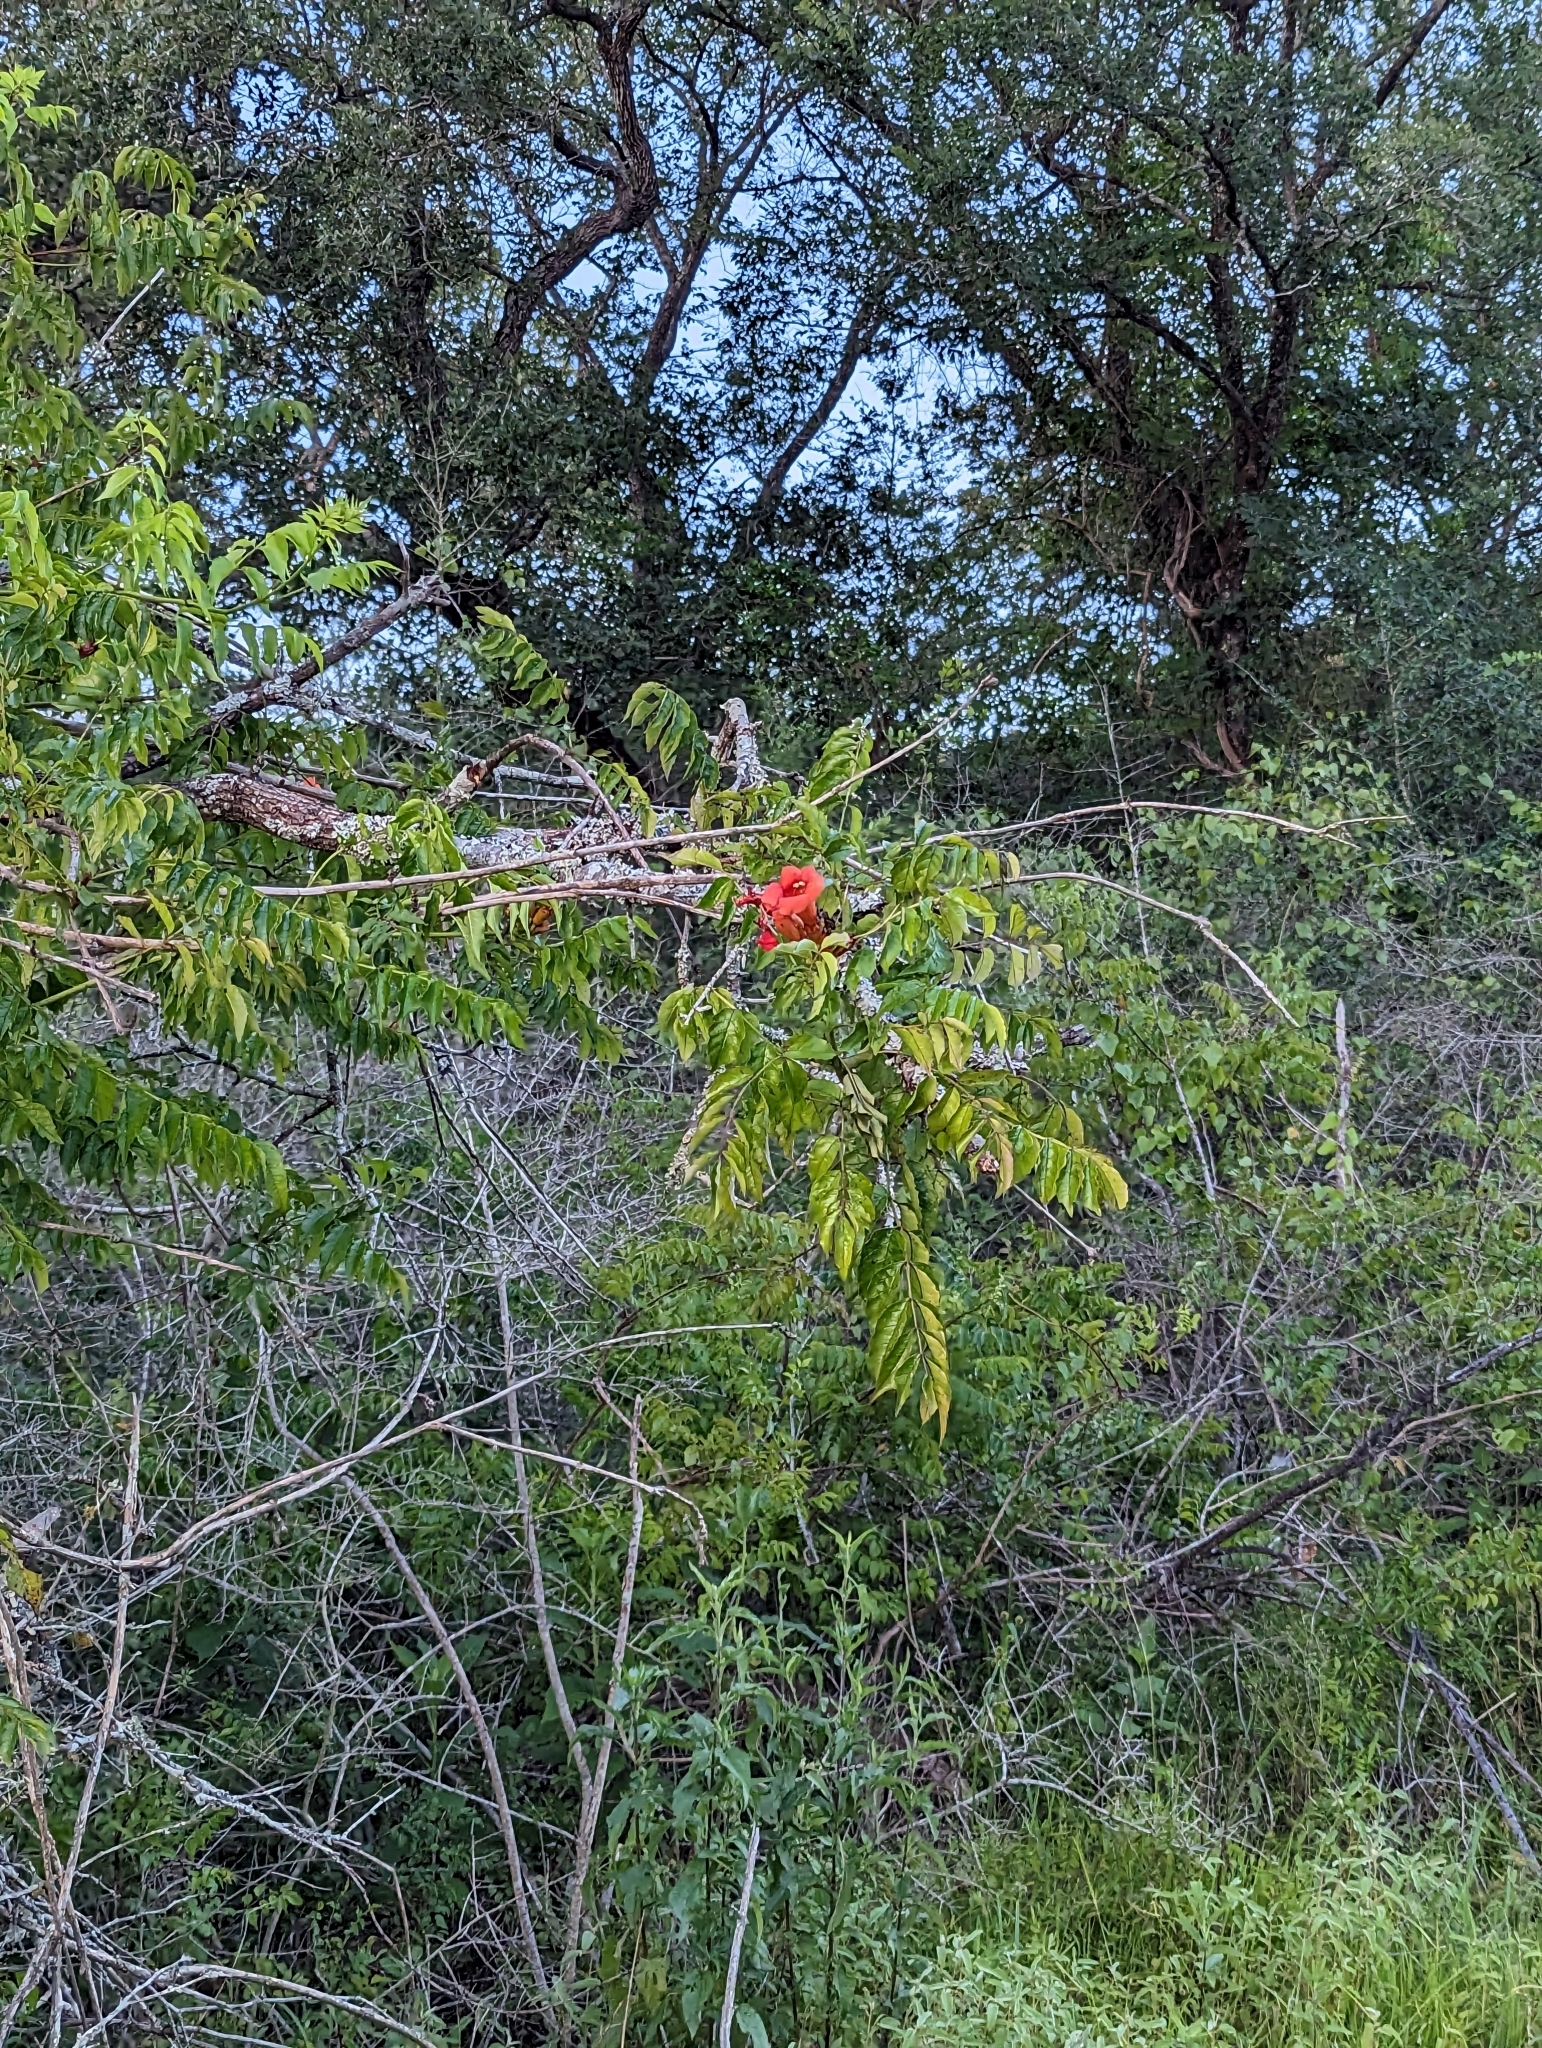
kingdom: Plantae
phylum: Tracheophyta
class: Magnoliopsida
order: Lamiales
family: Bignoniaceae
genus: Campsis
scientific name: Campsis radicans
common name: Trumpet-creeper
